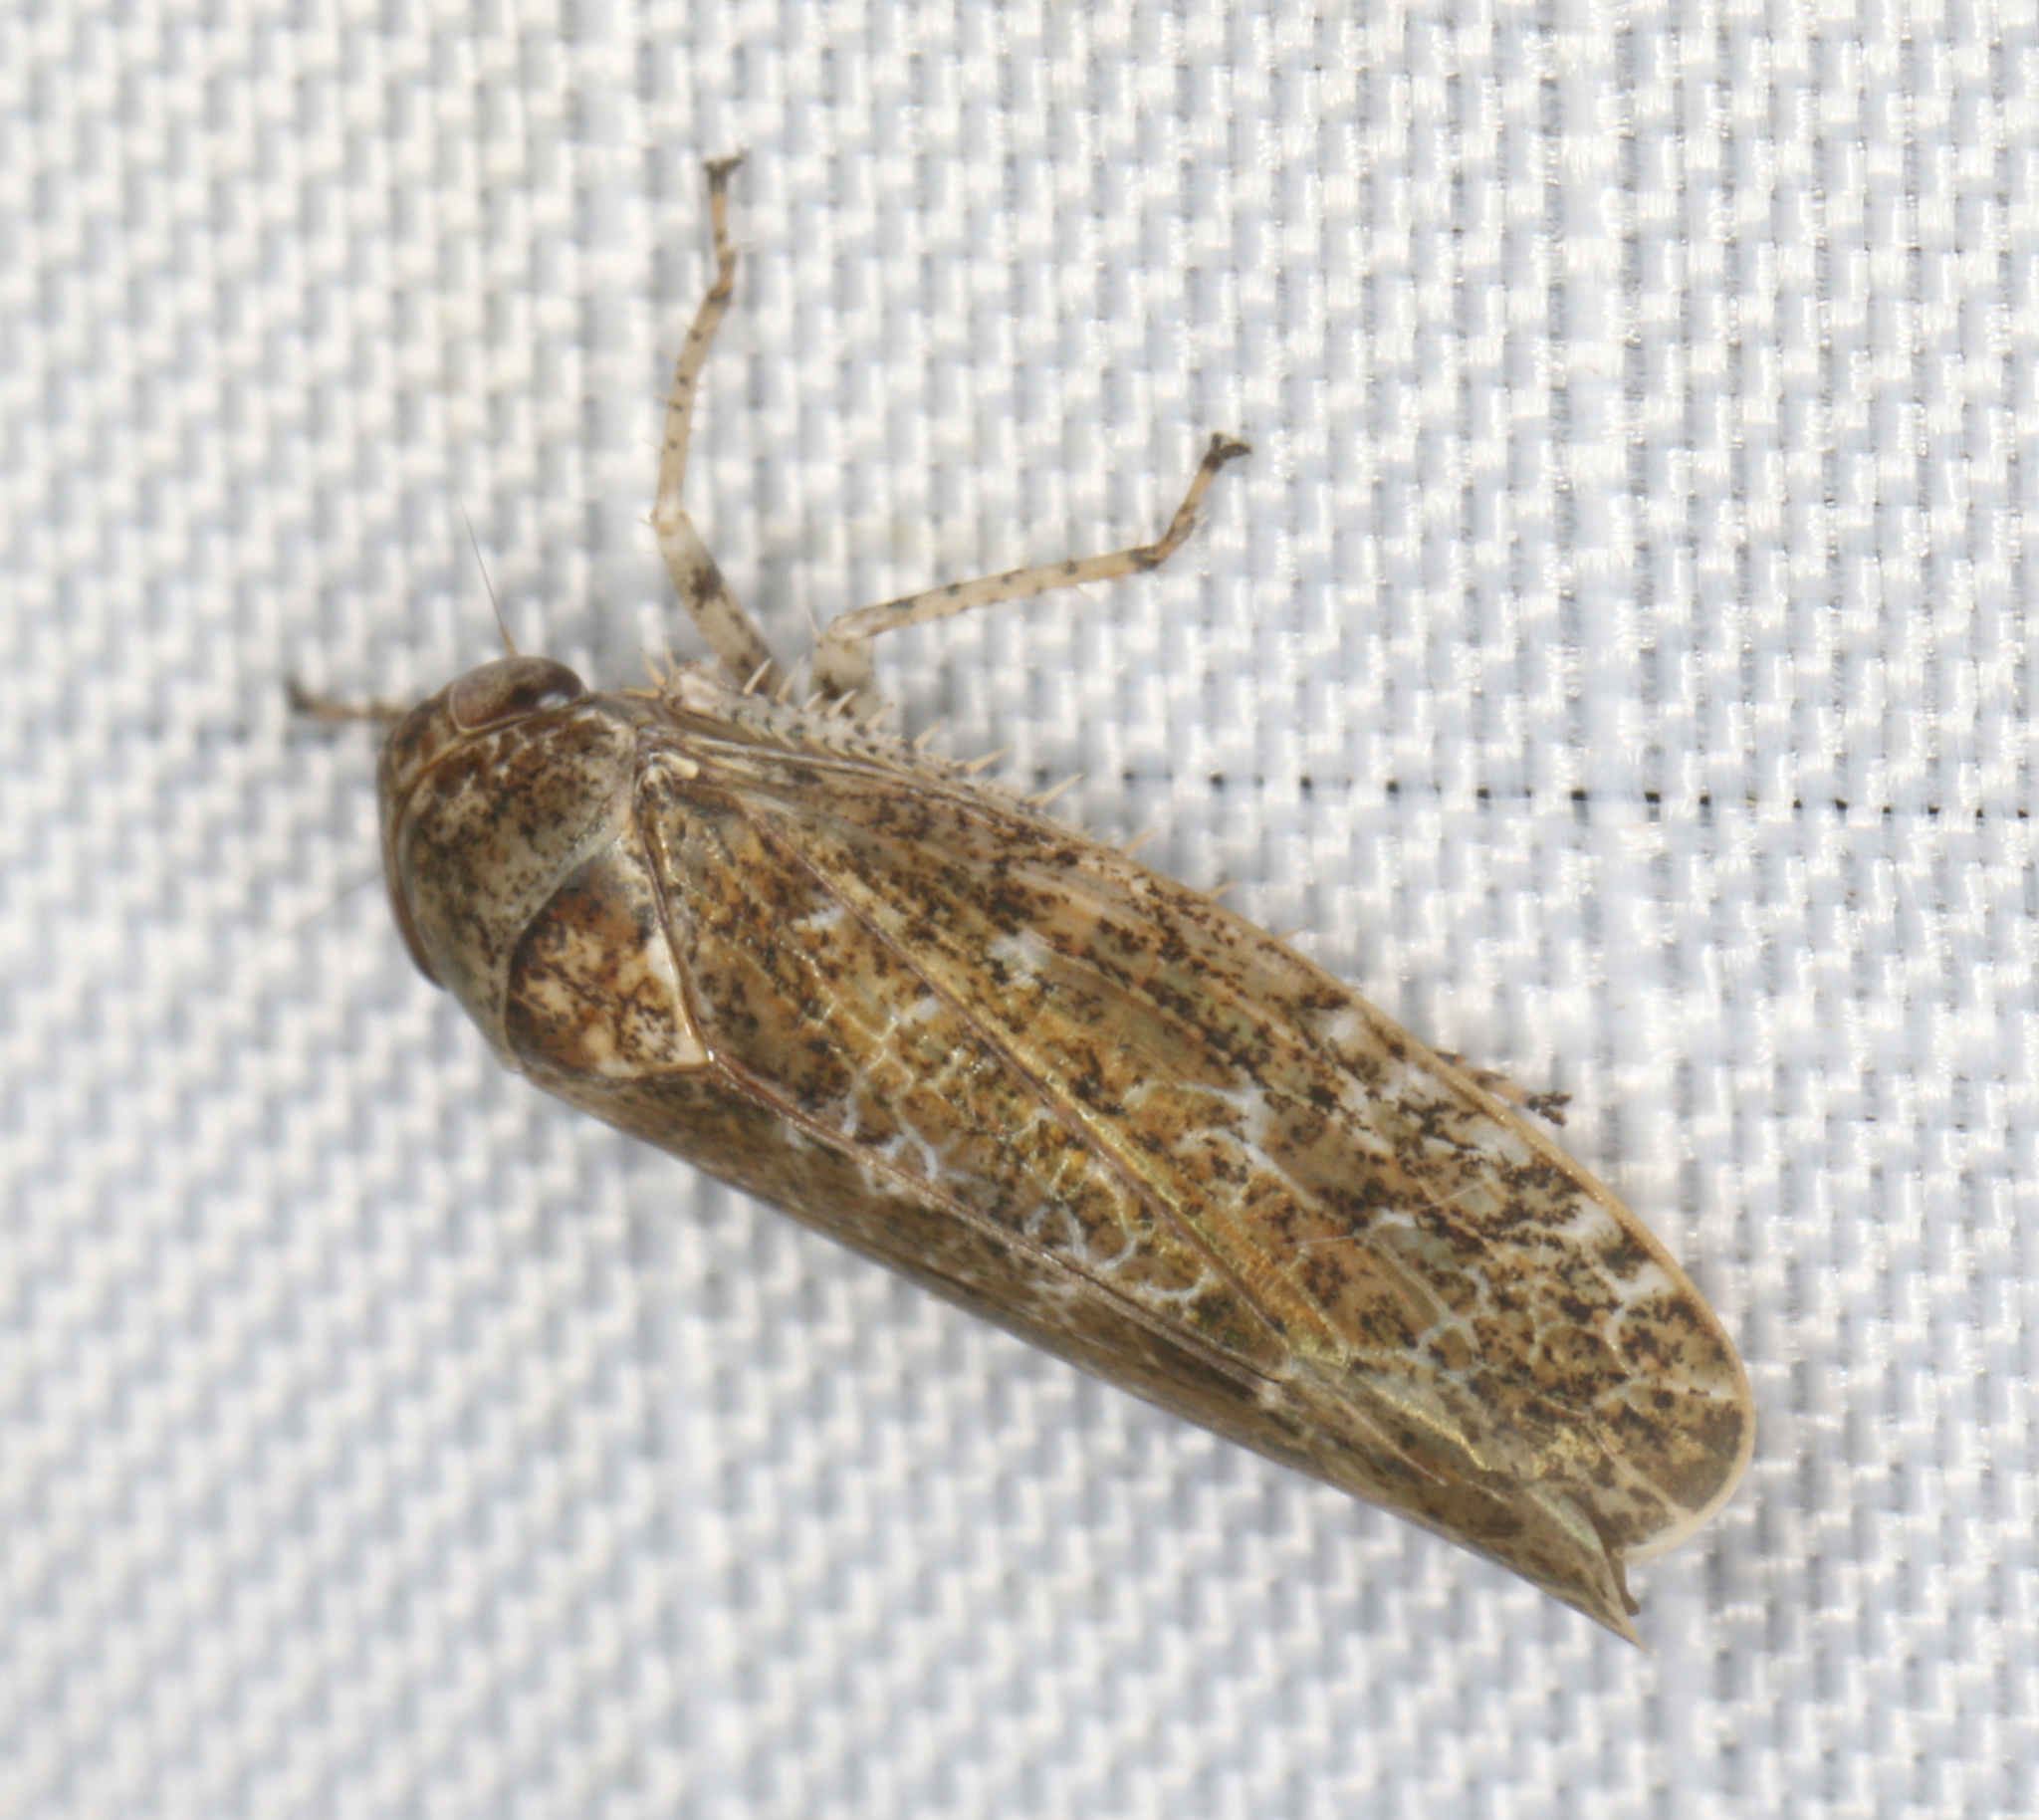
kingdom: Animalia
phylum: Arthropoda
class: Insecta
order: Hemiptera
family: Cicadellidae
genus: Allygidius
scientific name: Allygidius atomarius
